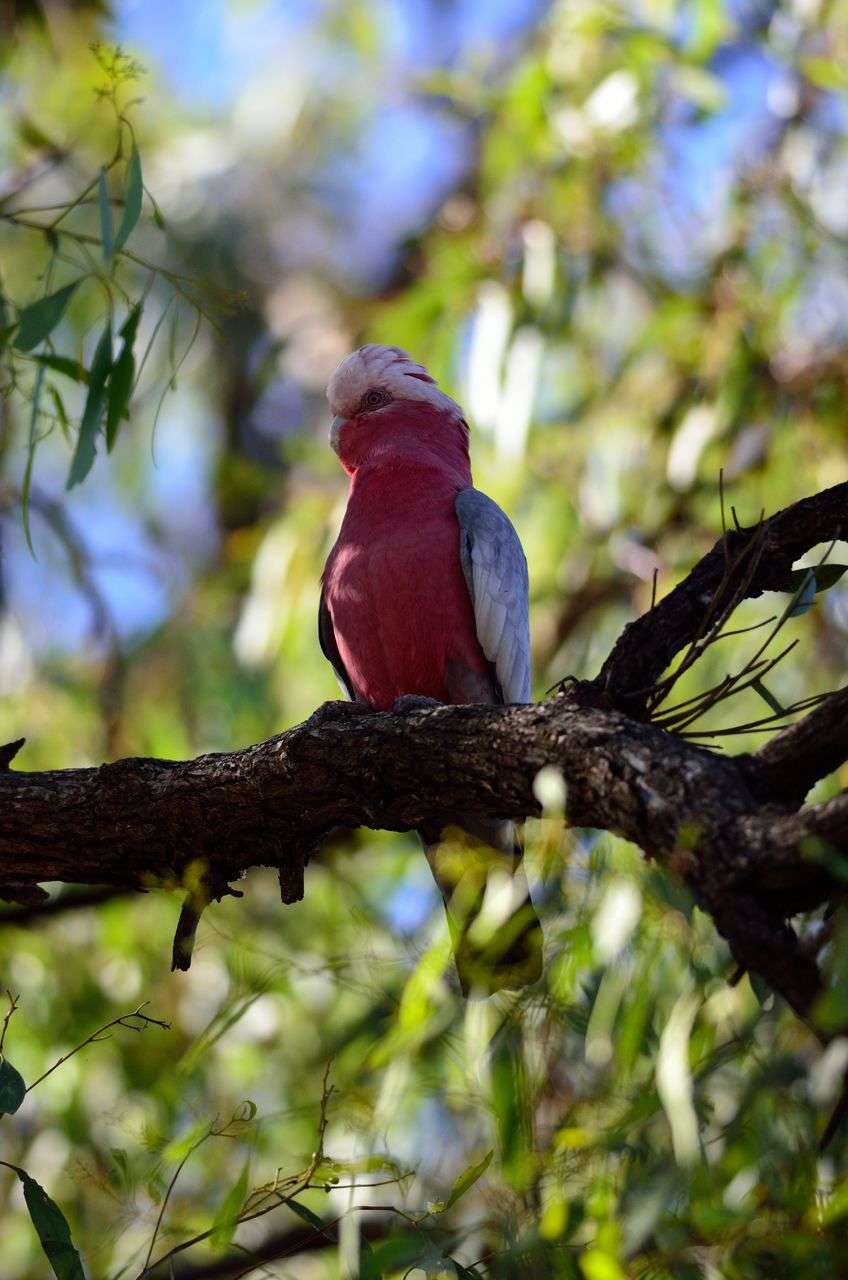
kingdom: Animalia
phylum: Chordata
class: Aves
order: Psittaciformes
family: Psittacidae
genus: Eolophus
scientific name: Eolophus roseicapilla
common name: Galah
